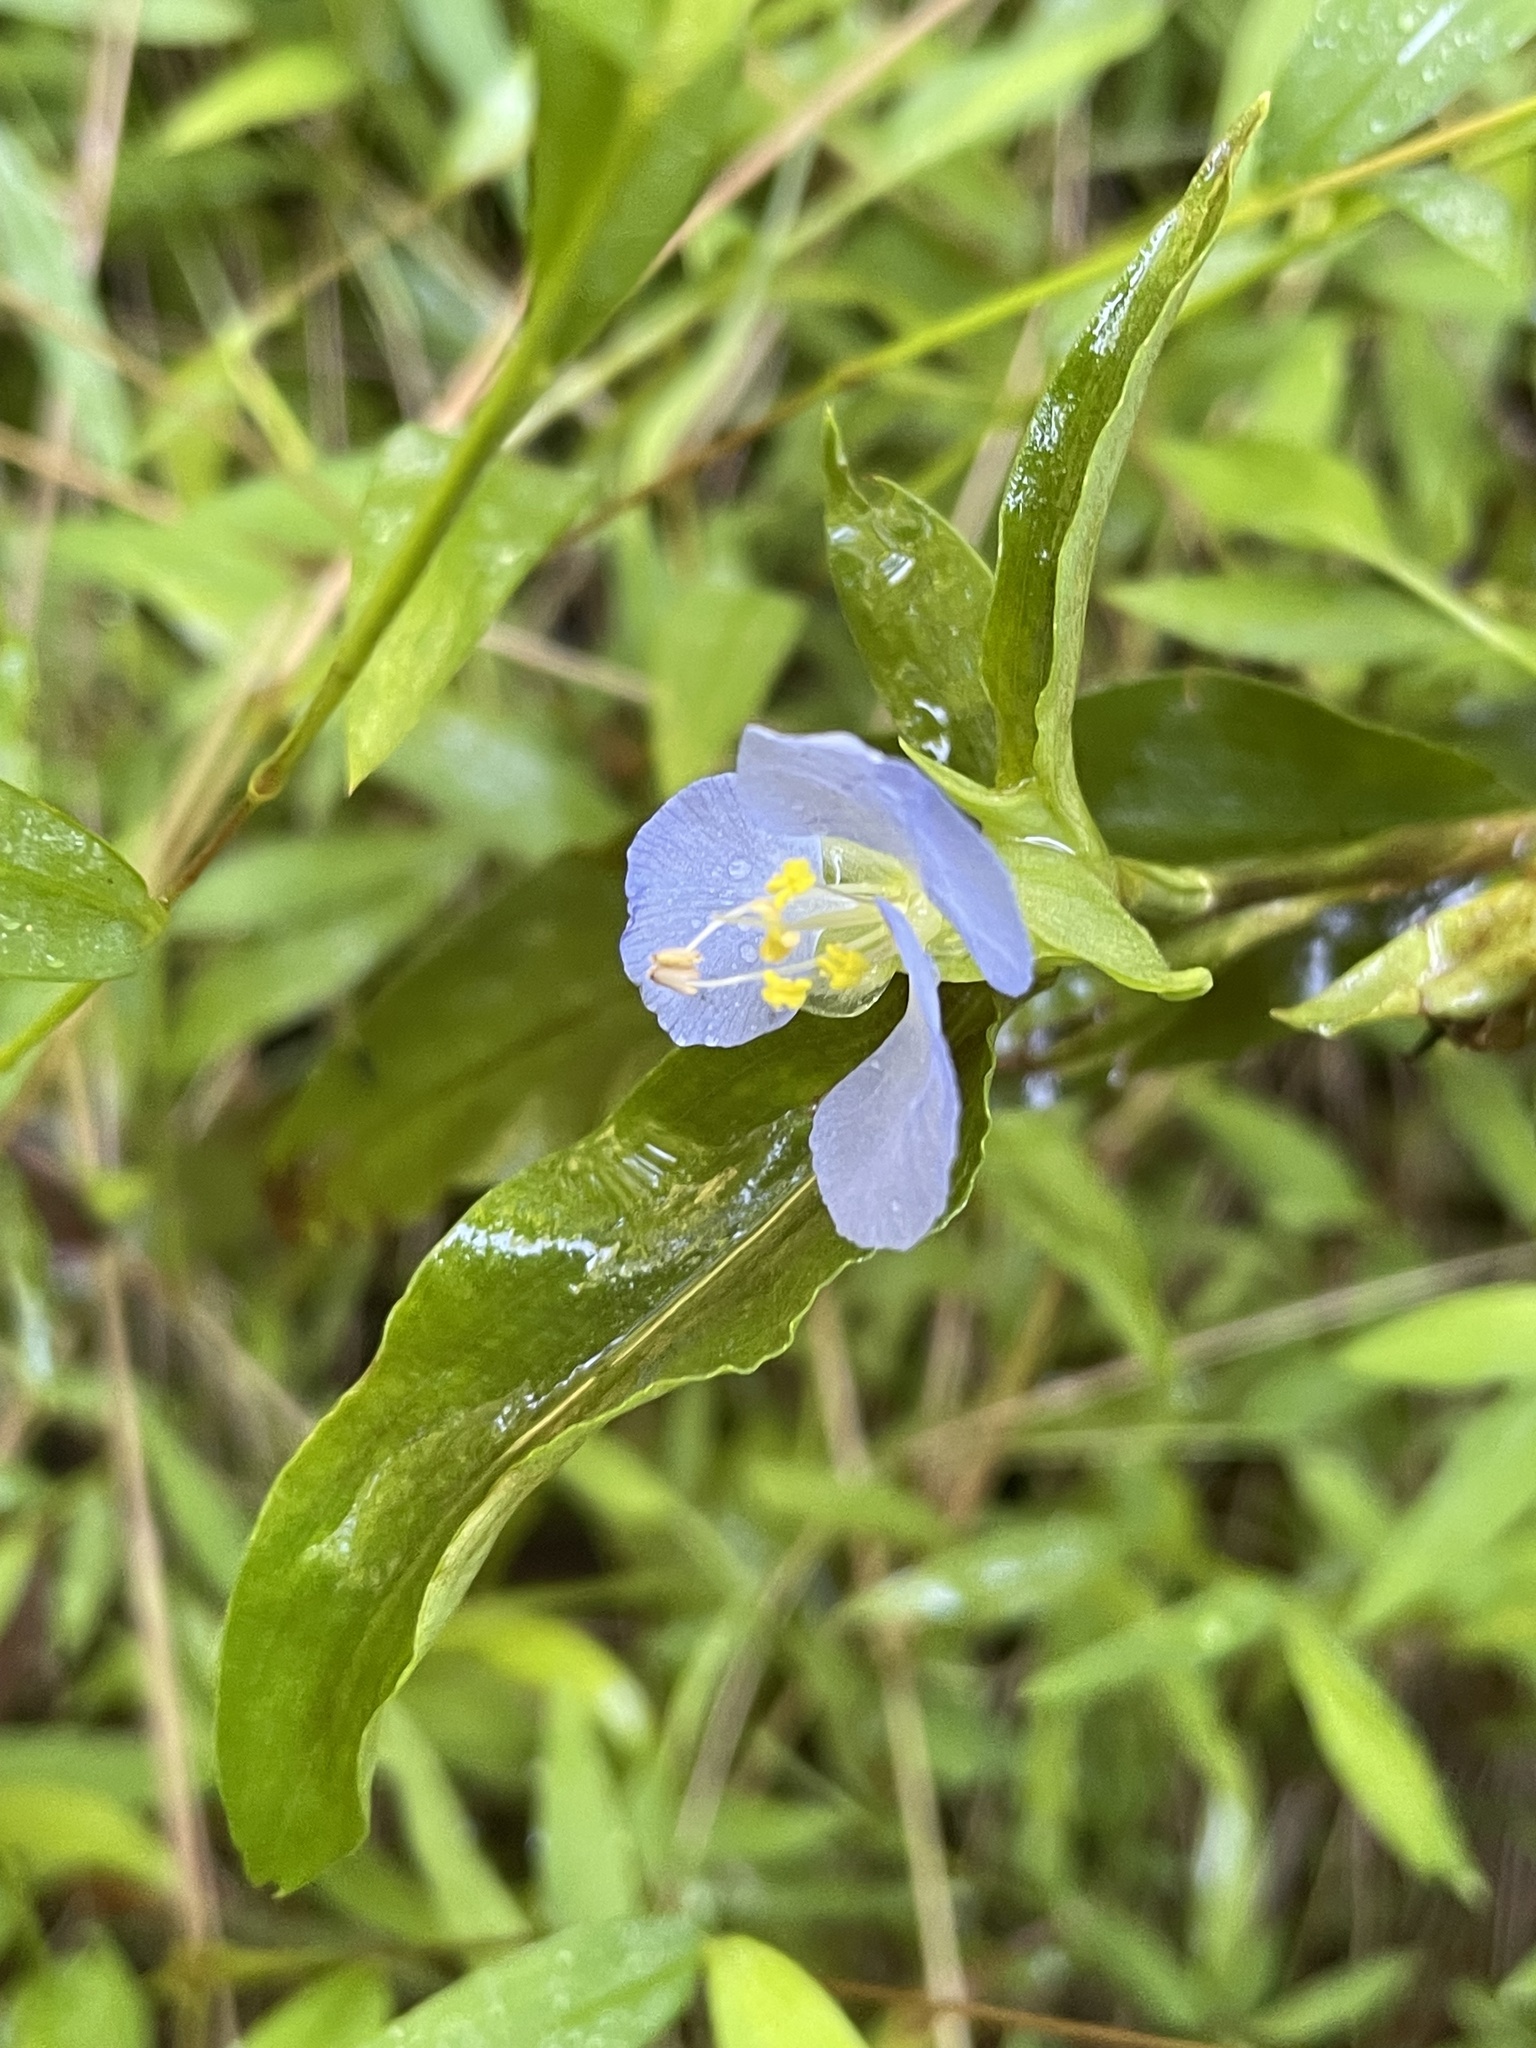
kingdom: Plantae
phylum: Tracheophyta
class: Liliopsida
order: Commelinales
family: Commelinaceae
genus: Commelina
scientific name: Commelina virginica
